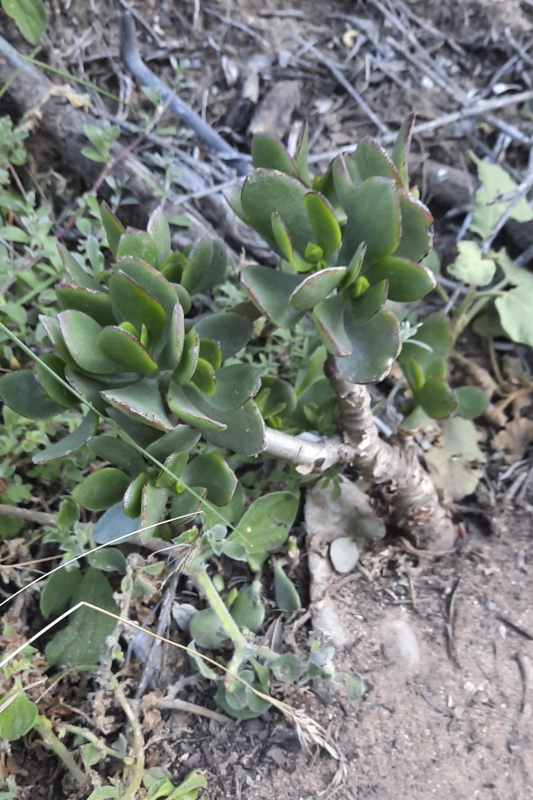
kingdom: Plantae
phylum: Tracheophyta
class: Magnoliopsida
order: Saxifragales
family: Crassulaceae
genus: Crassula
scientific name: Crassula ovata
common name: Jade plant
